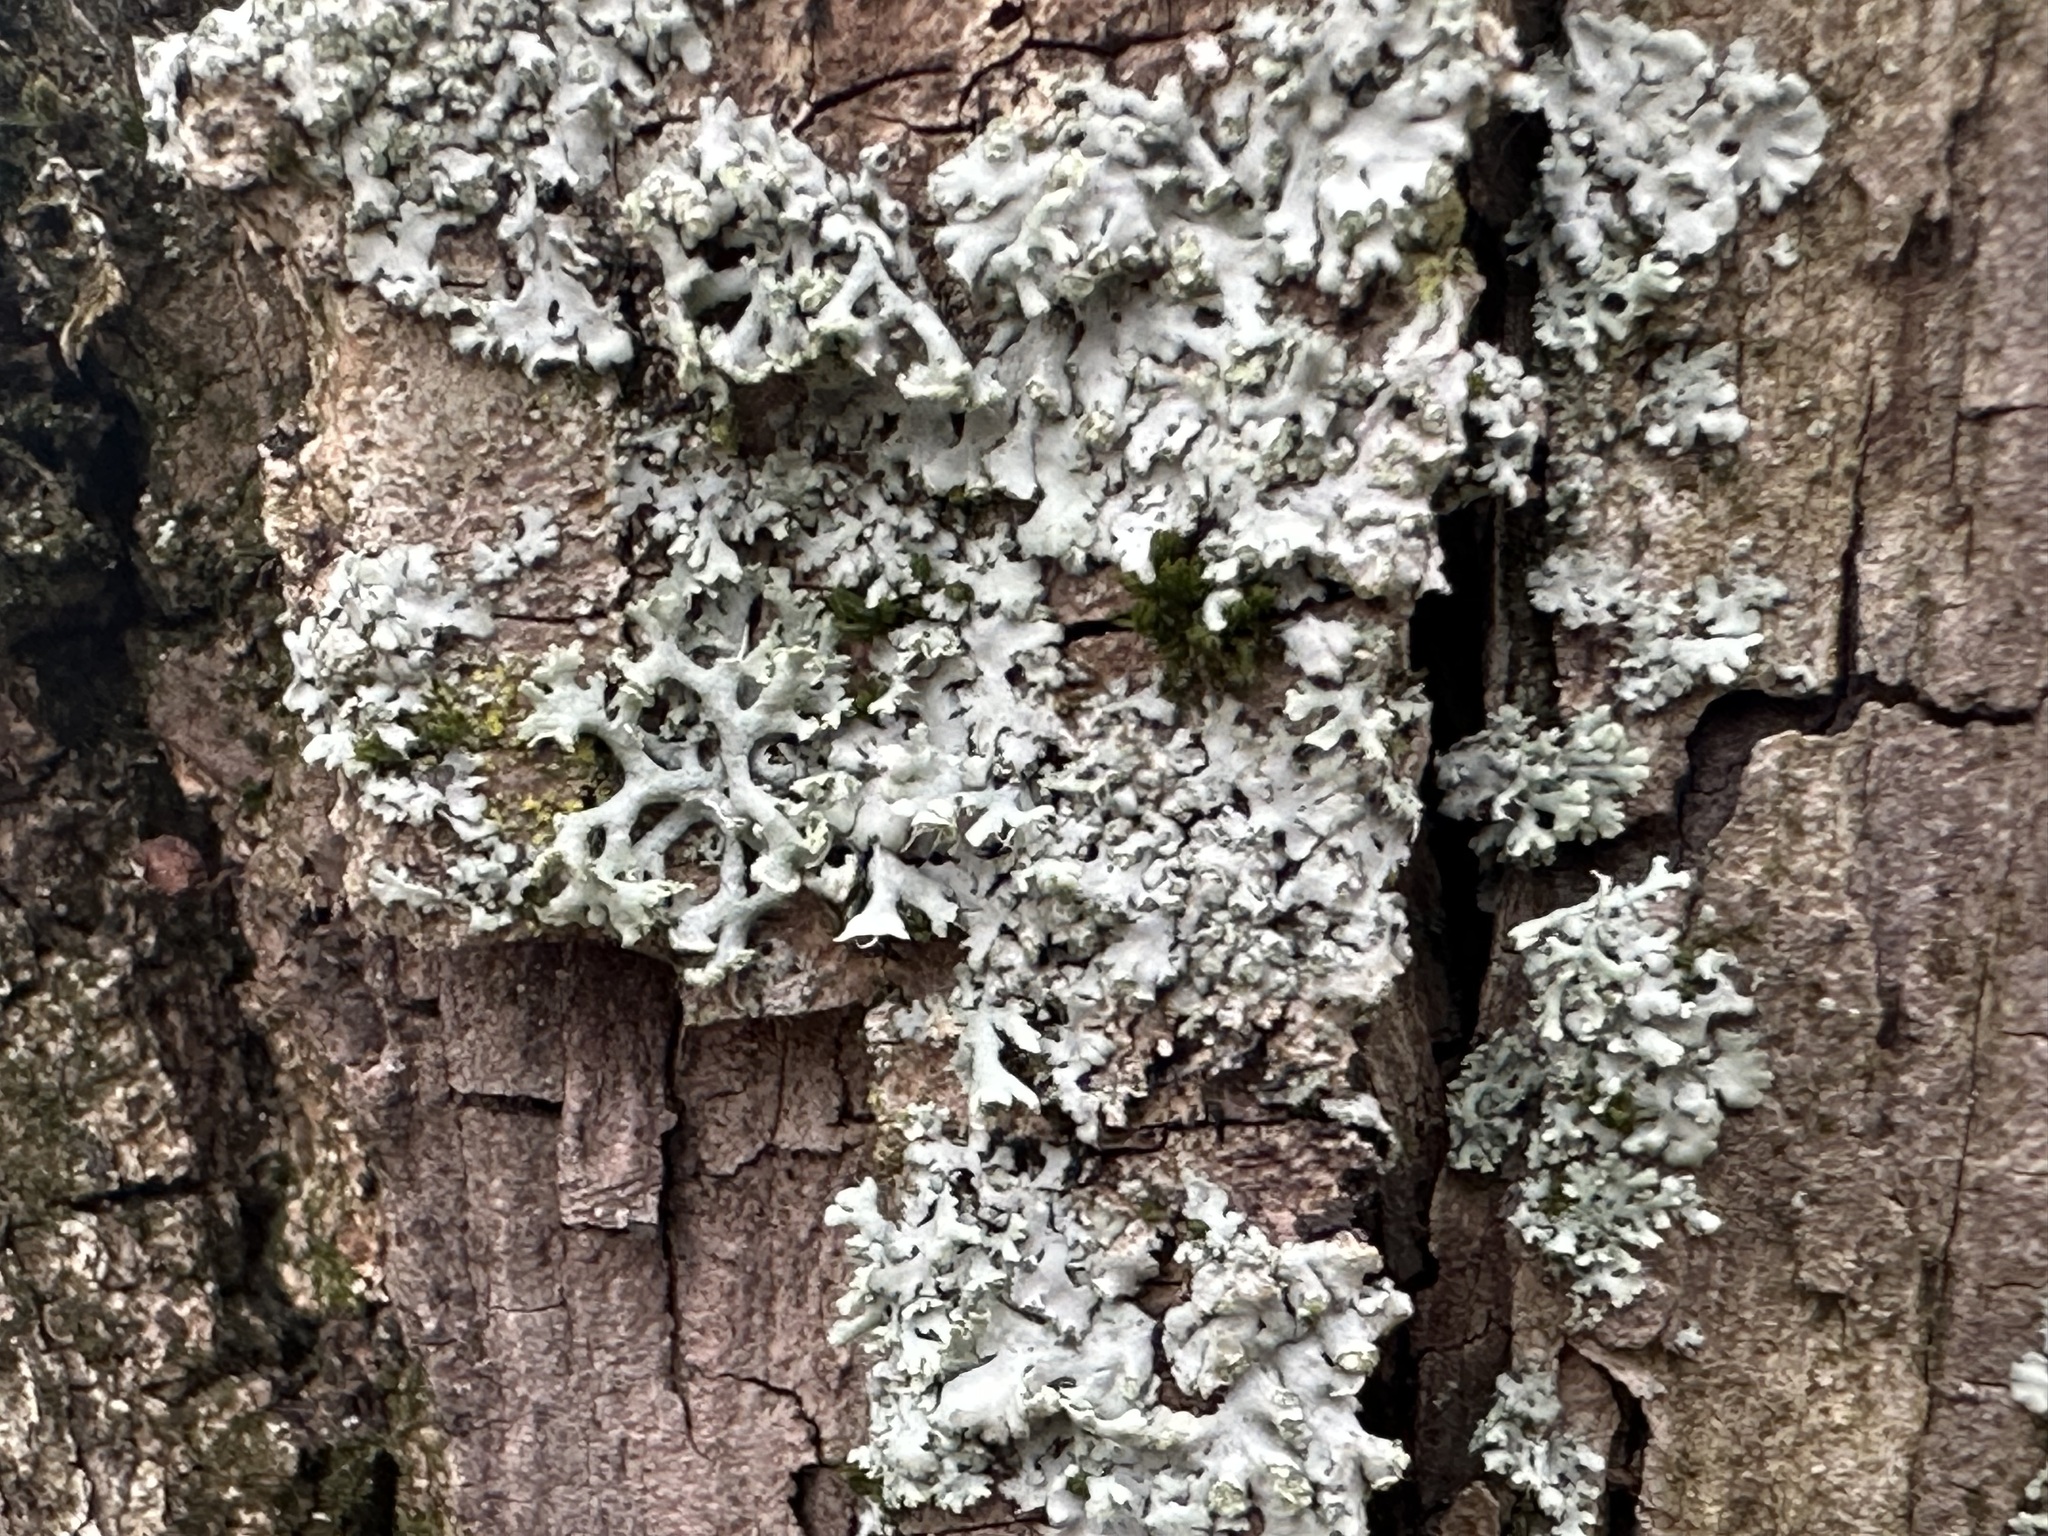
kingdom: Fungi
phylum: Ascomycota
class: Lecanoromycetes
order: Caliciales
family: Physciaceae
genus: Physcia
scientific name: Physcia tenella
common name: Fringed rosette lichen
